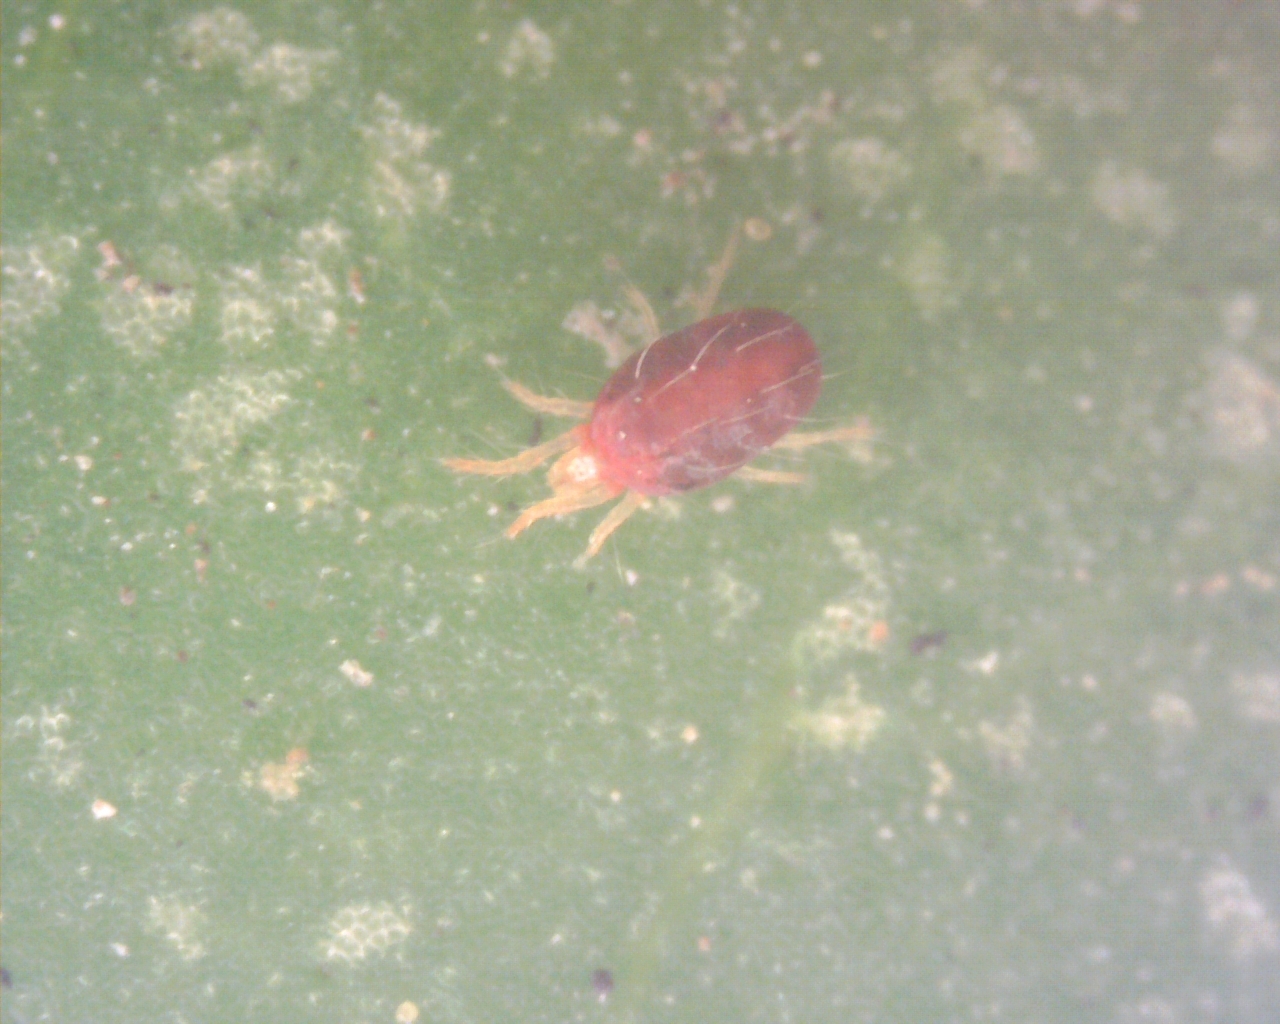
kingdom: Animalia
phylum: Arthropoda
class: Arachnida
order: Trombidiformes
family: Tetranychidae
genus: Tetranychus
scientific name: Tetranychus urticae
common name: Carmine spider mite
